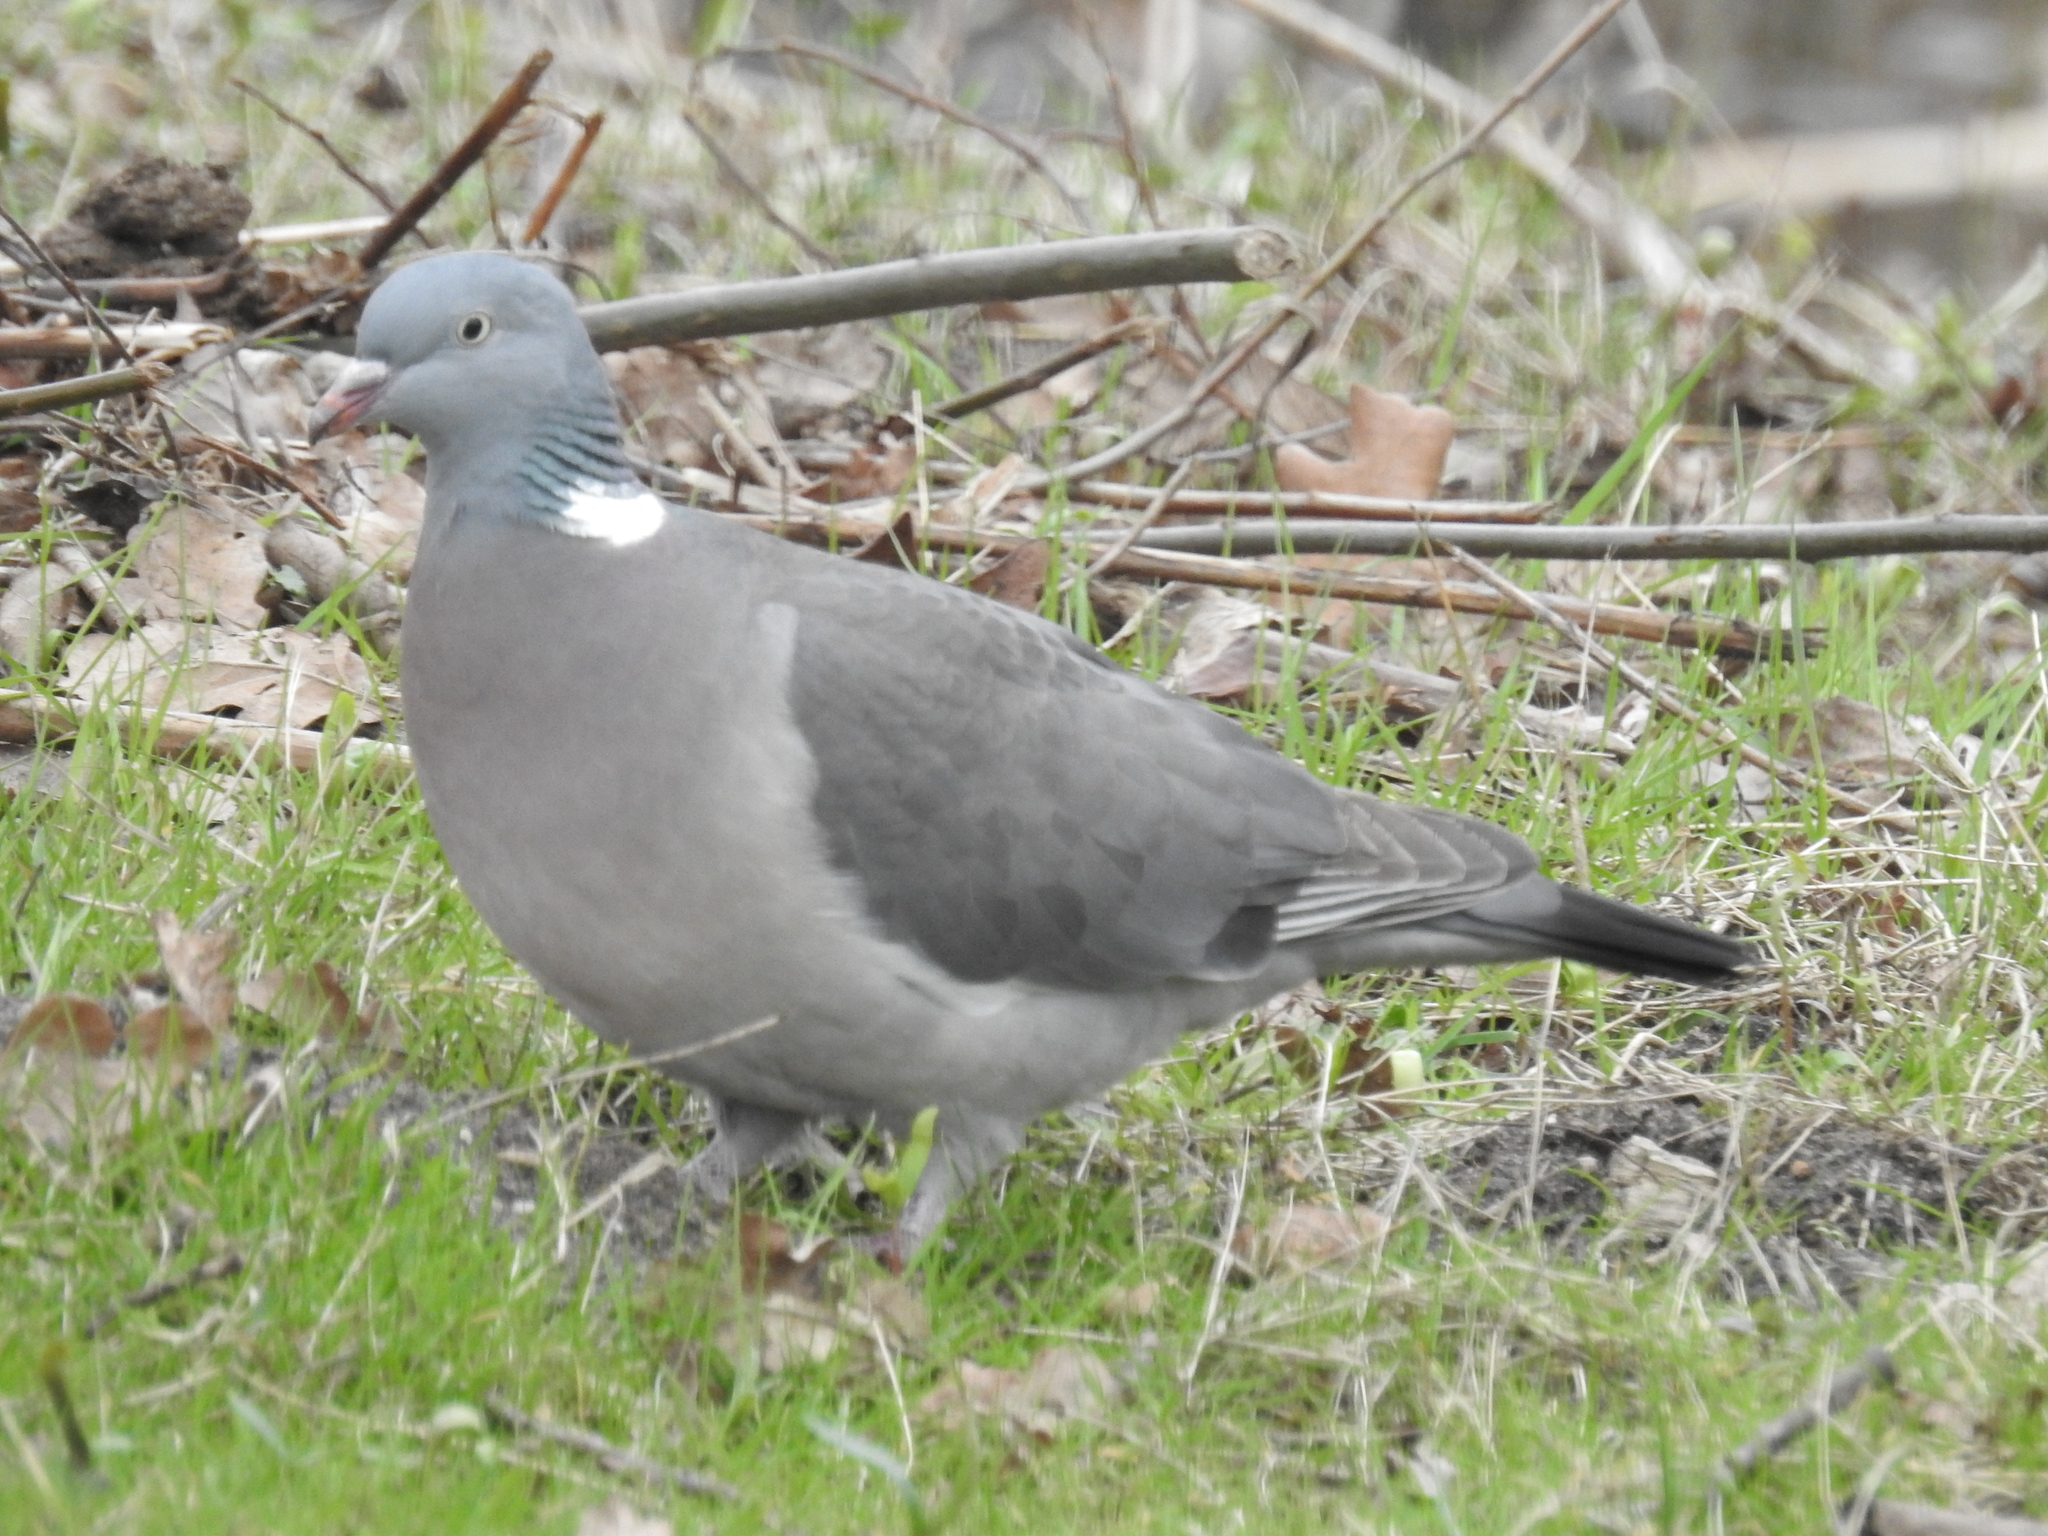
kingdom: Animalia
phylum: Chordata
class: Aves
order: Columbiformes
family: Columbidae
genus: Columba
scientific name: Columba palumbus
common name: Common wood pigeon
